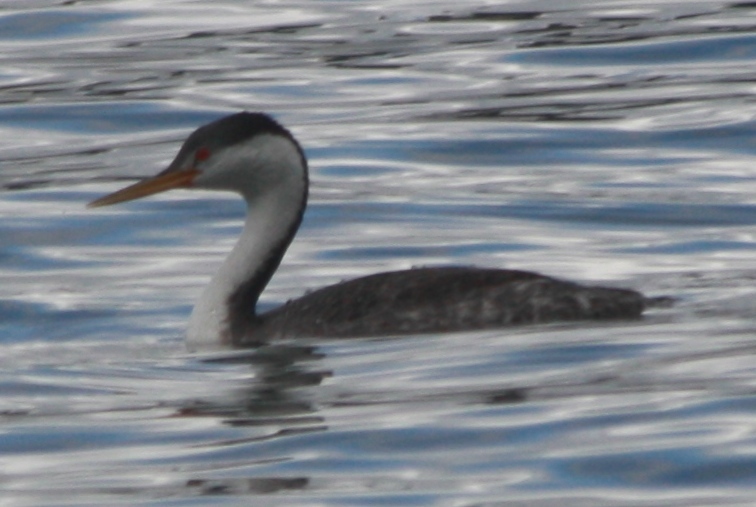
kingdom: Animalia
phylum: Chordata
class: Aves
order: Podicipediformes
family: Podicipedidae
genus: Aechmophorus
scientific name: Aechmophorus clarkii
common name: Clark's grebe
